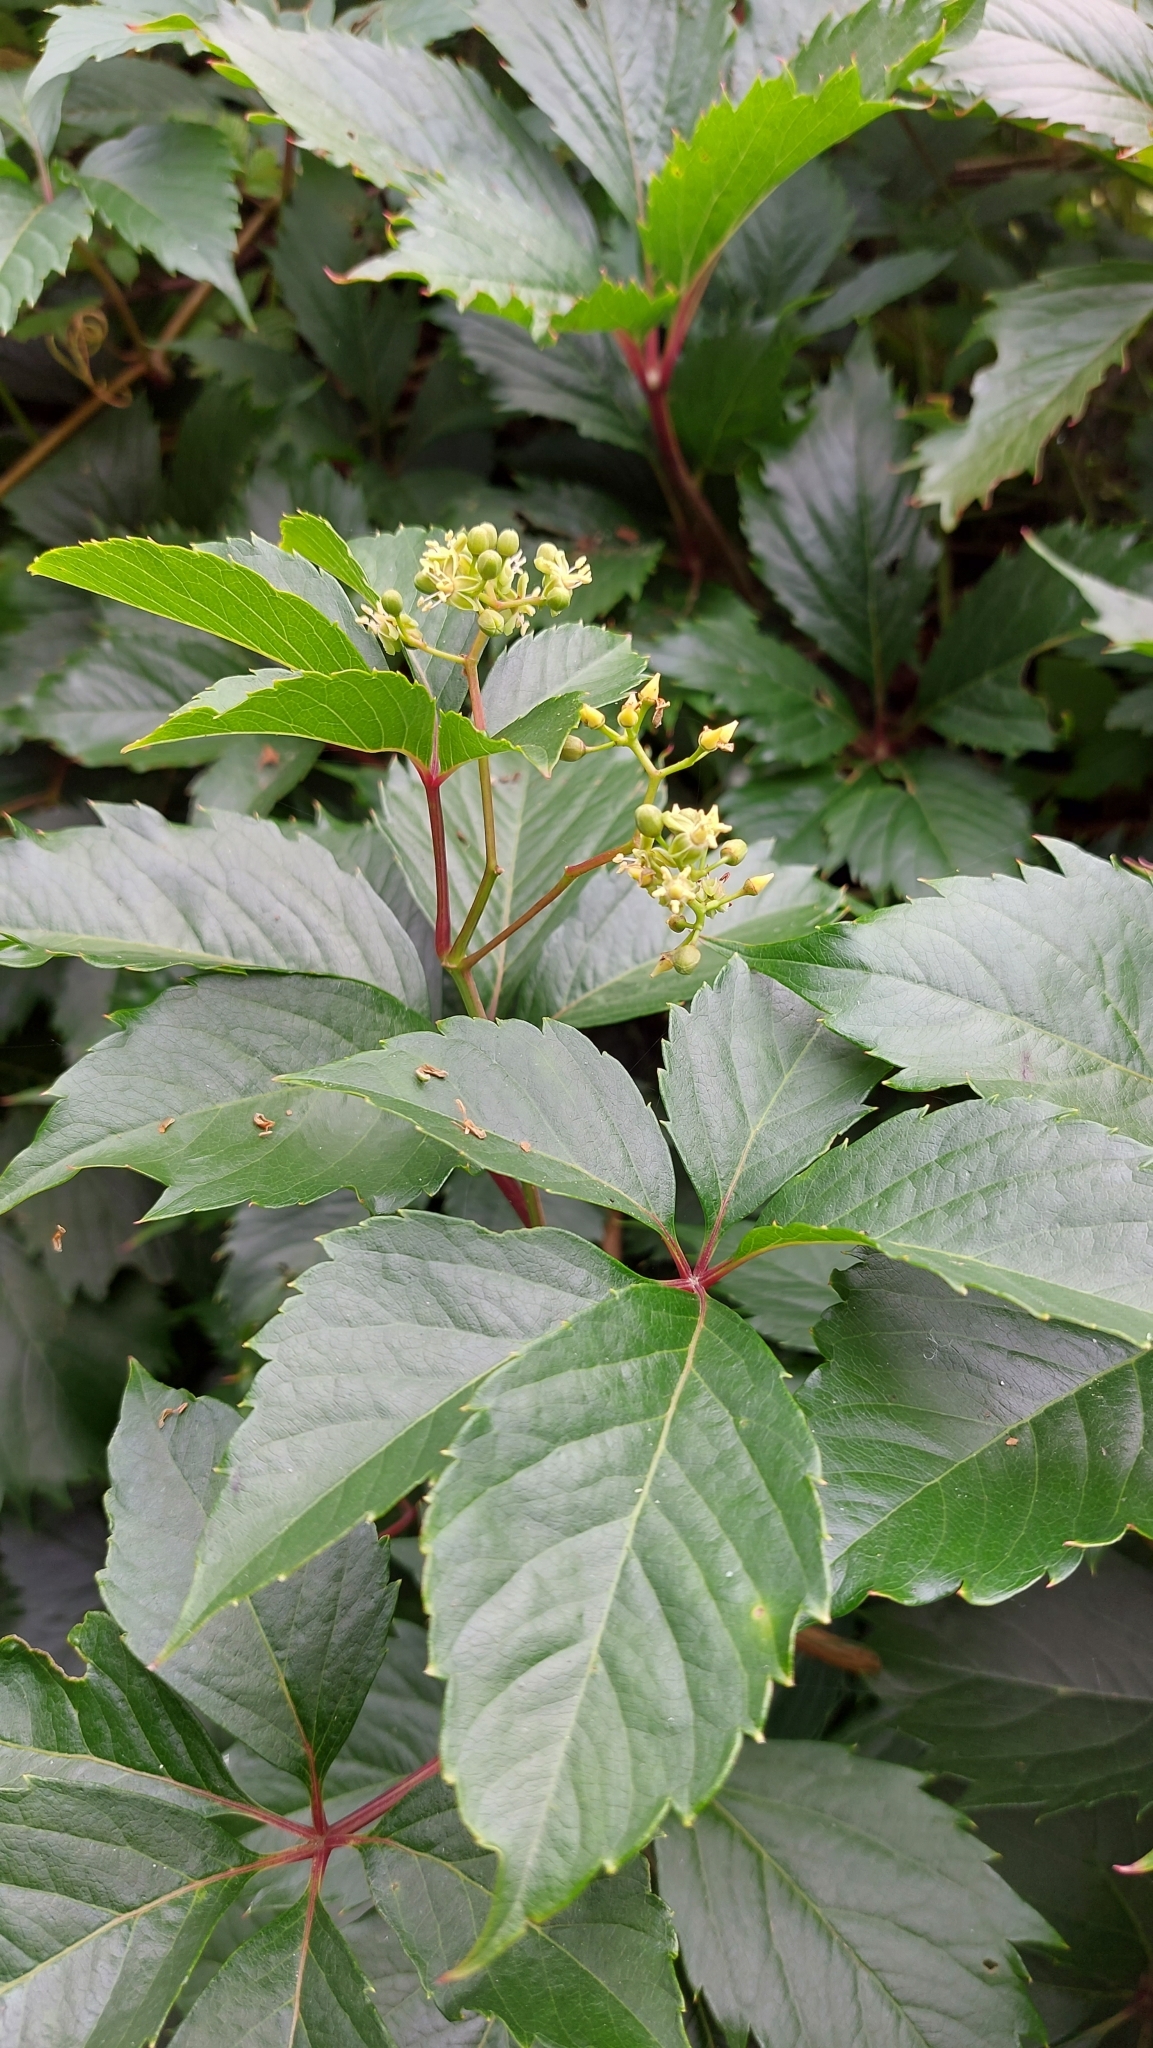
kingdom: Plantae
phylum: Tracheophyta
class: Magnoliopsida
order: Vitales
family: Vitaceae
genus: Parthenocissus
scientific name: Parthenocissus inserta
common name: False virginia-creeper
